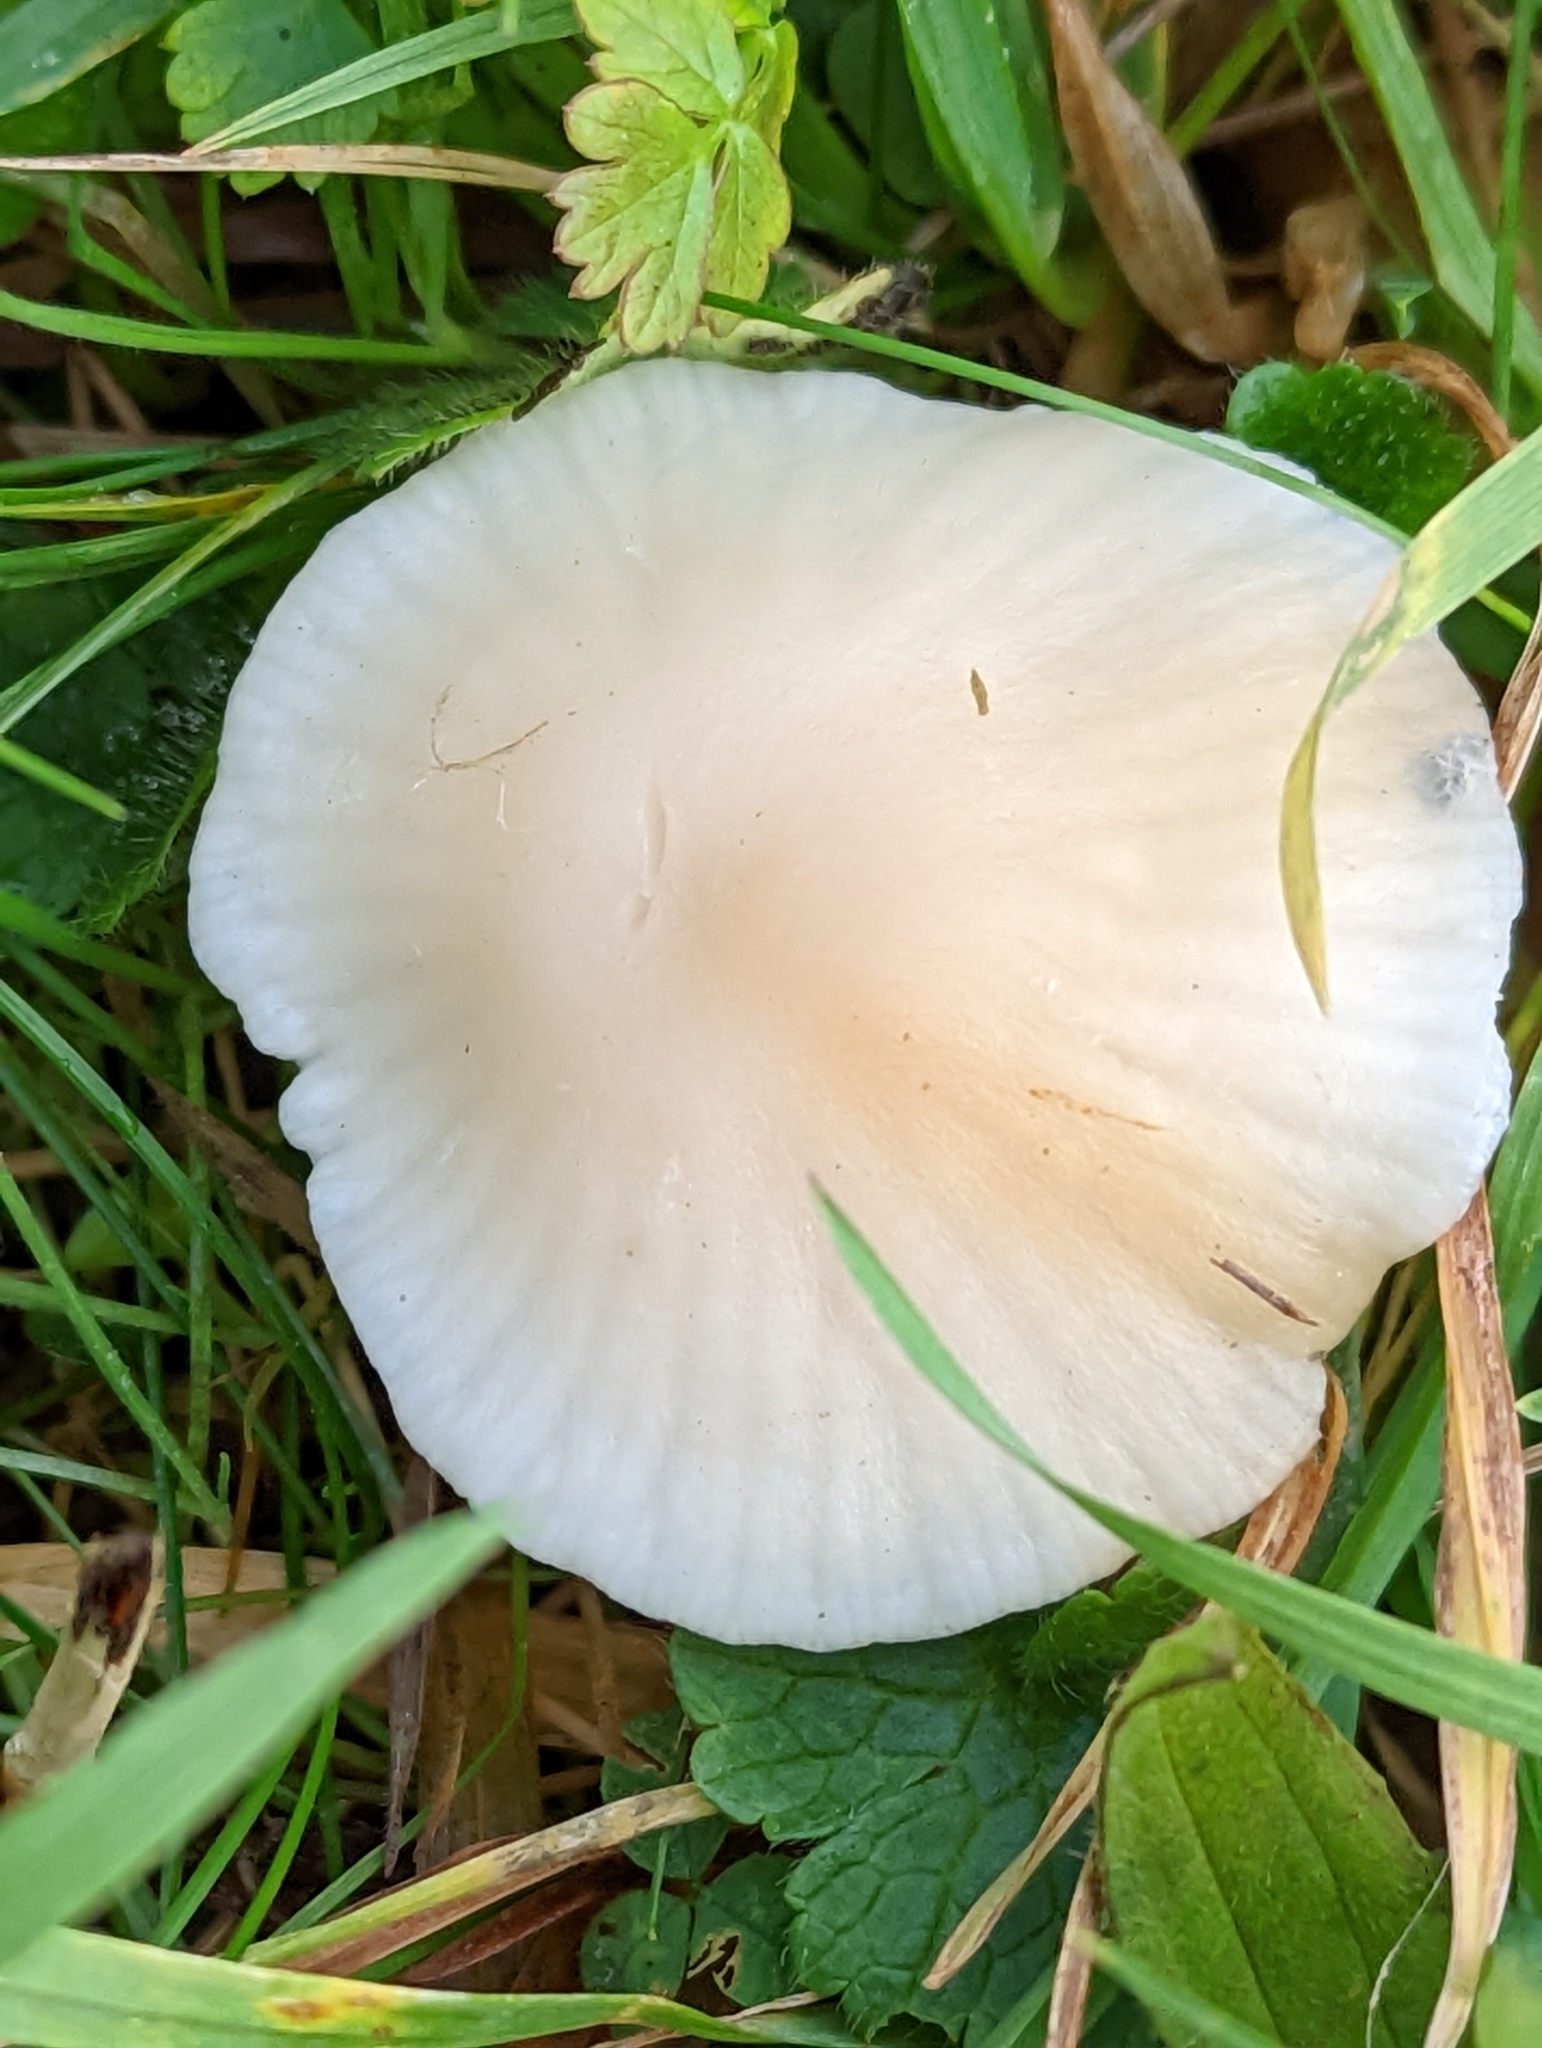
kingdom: Fungi
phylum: Basidiomycota
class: Agaricomycetes
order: Agaricales
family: Hygrophoraceae
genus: Cuphophyllus
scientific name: Cuphophyllus virgineus
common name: Snowy waxcap
